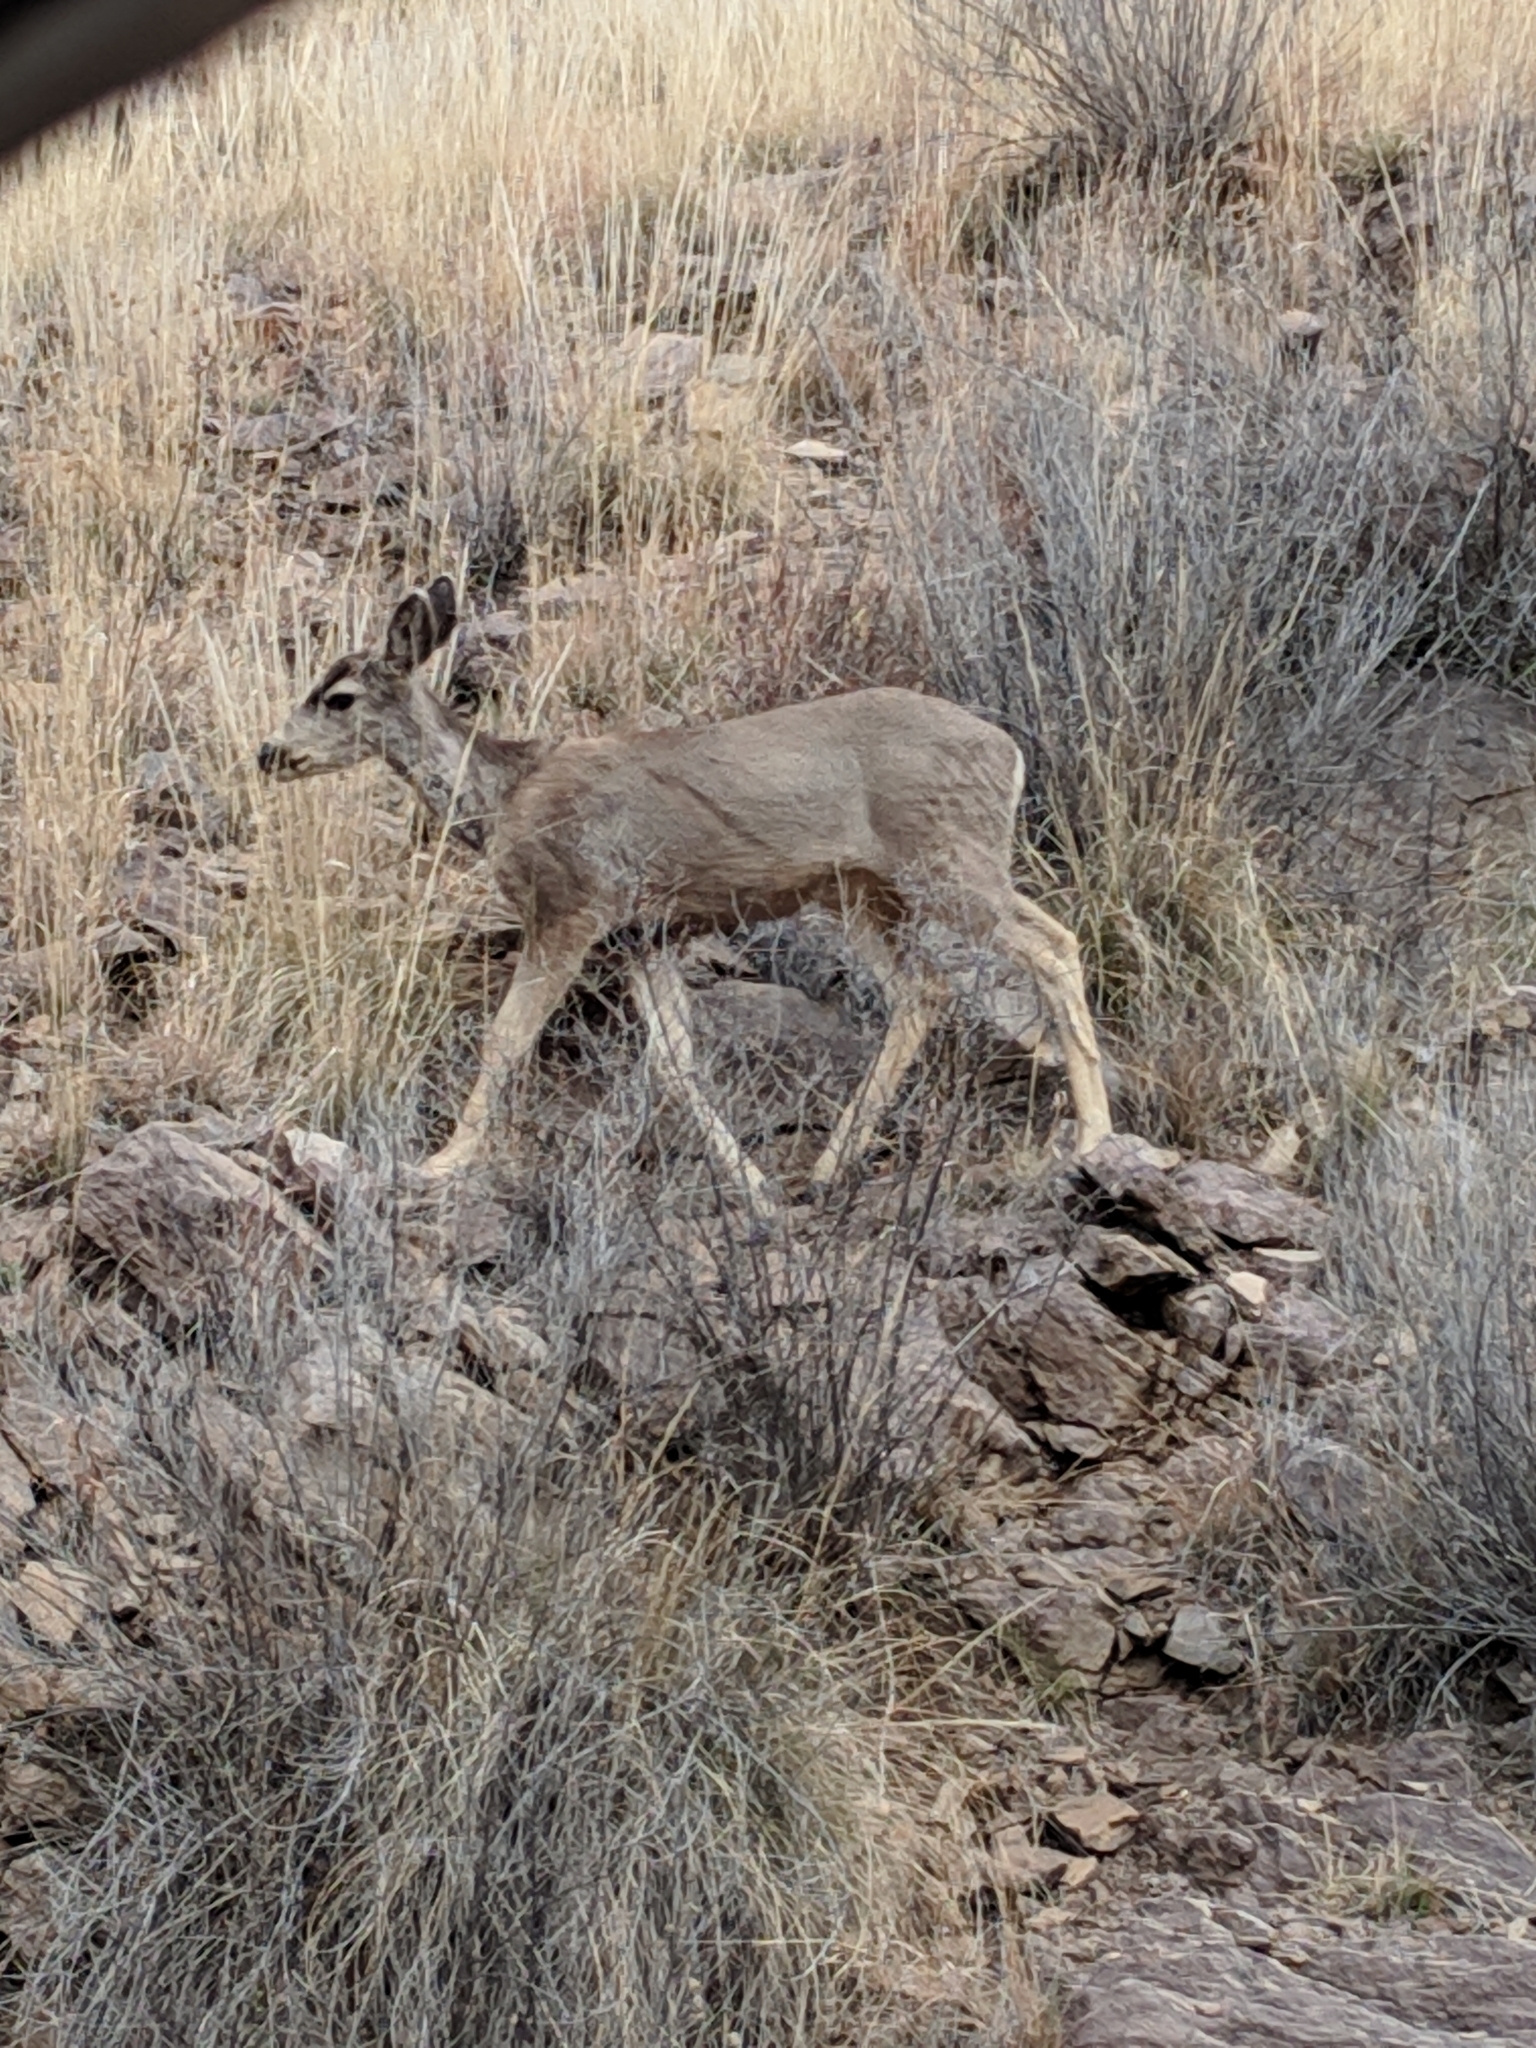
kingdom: Animalia
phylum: Chordata
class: Mammalia
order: Artiodactyla
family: Cervidae
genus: Odocoileus
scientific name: Odocoileus hemionus
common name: Mule deer
